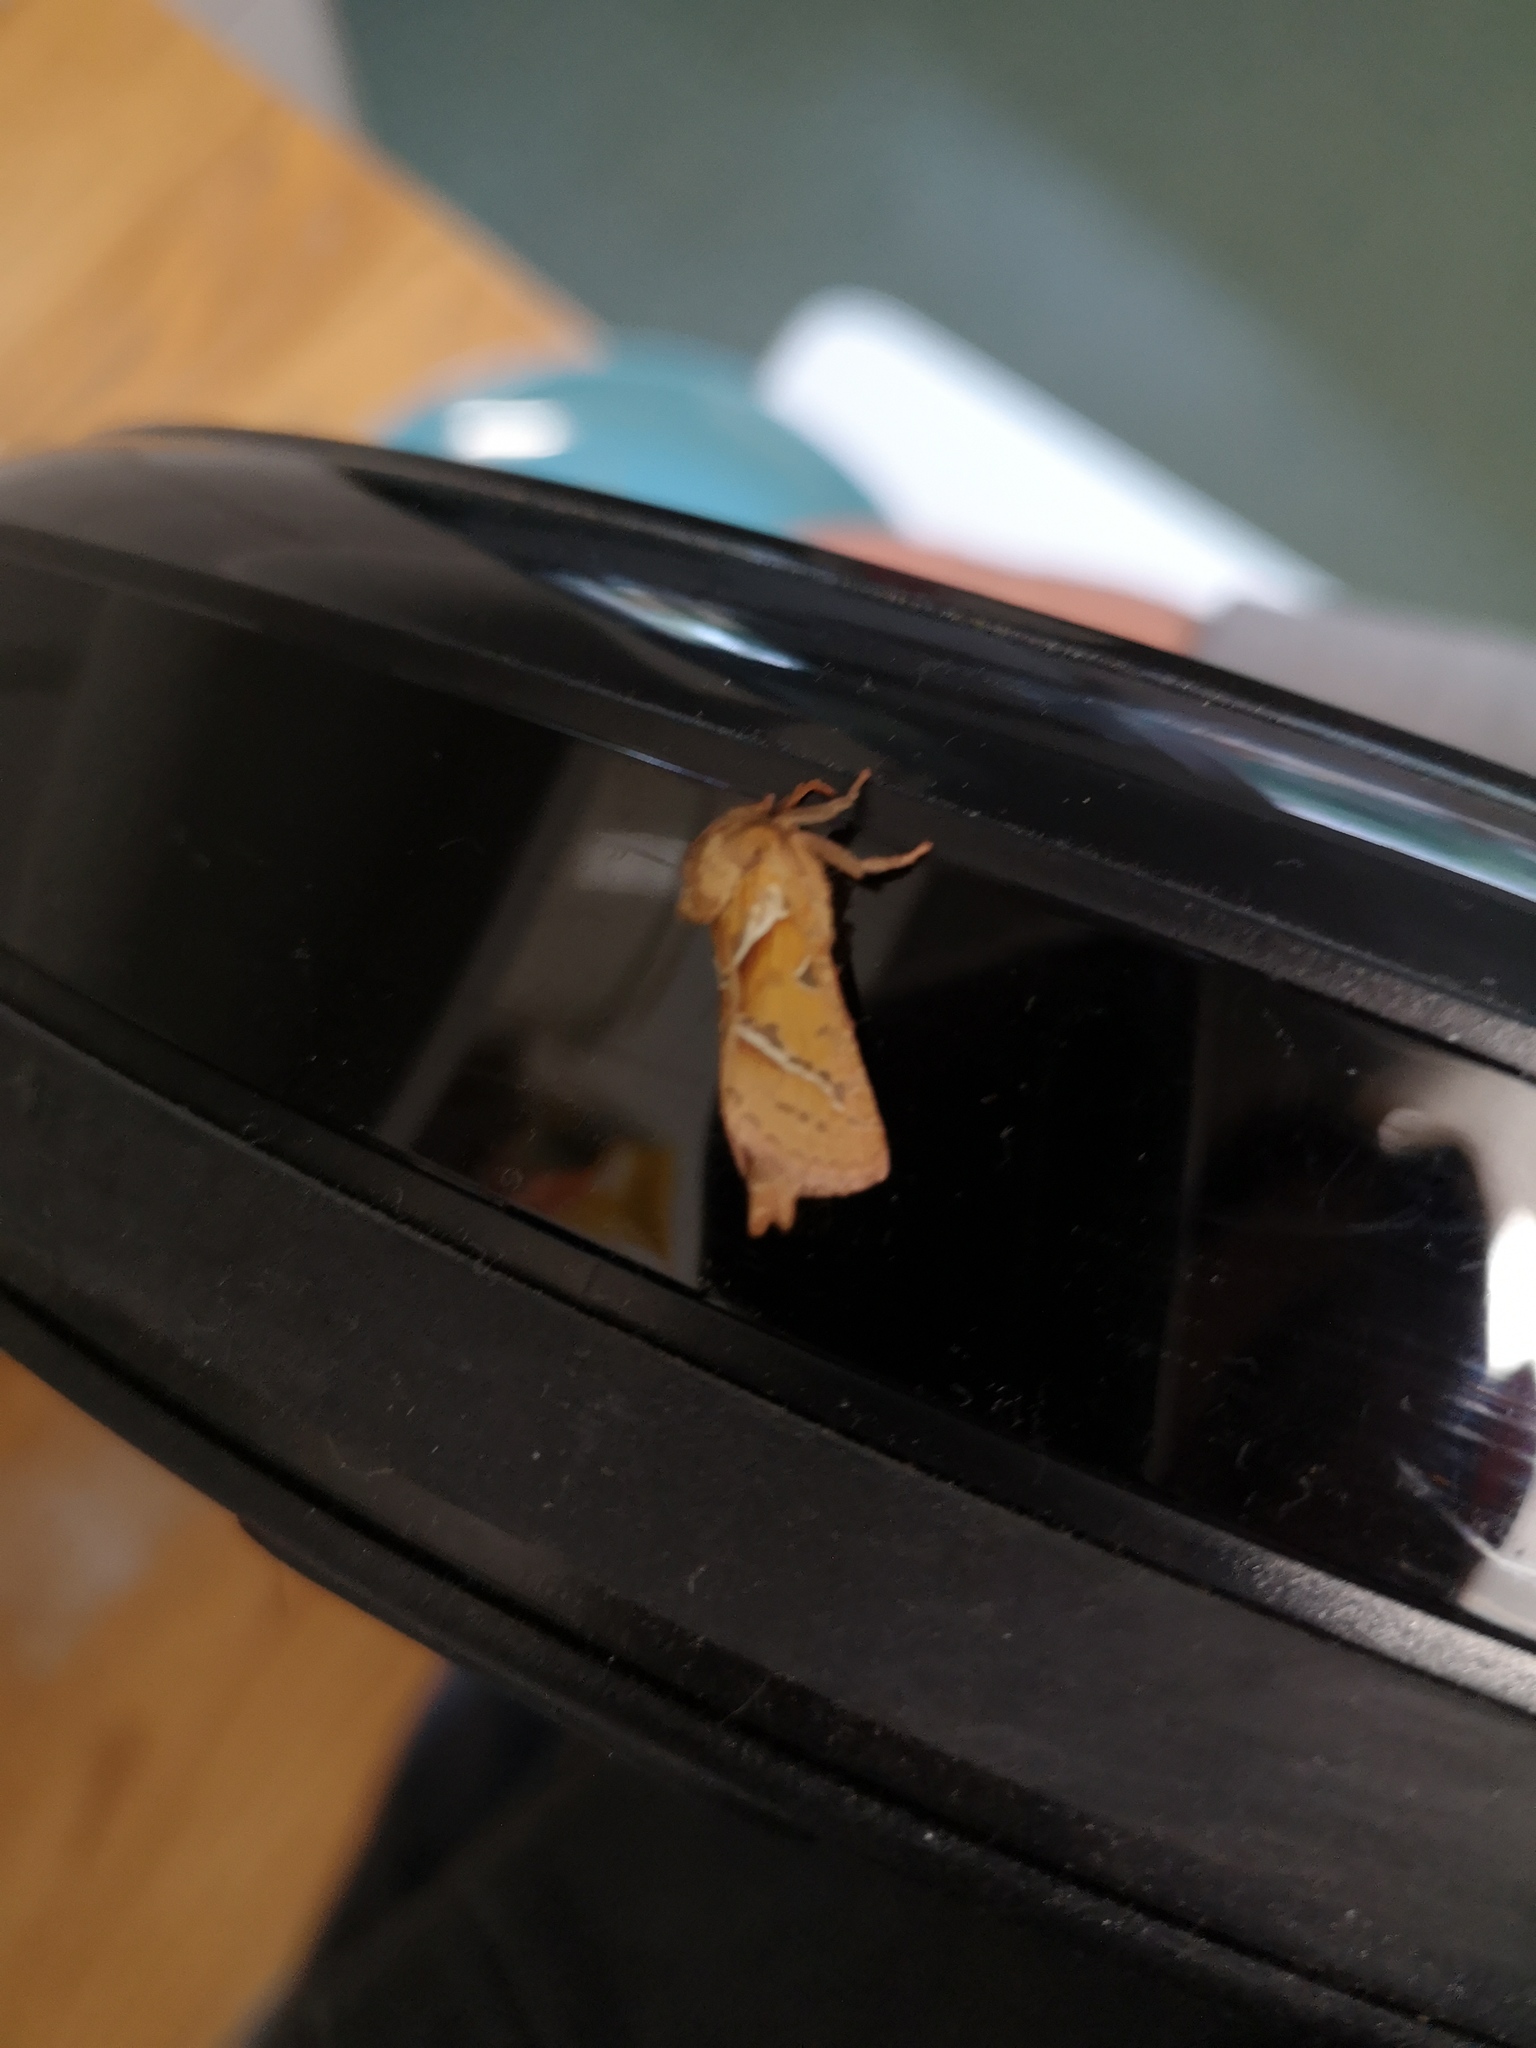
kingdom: Animalia
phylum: Arthropoda
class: Insecta
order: Lepidoptera
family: Hepialidae
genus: Triodia
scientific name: Triodia sylvina
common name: Orange swift
